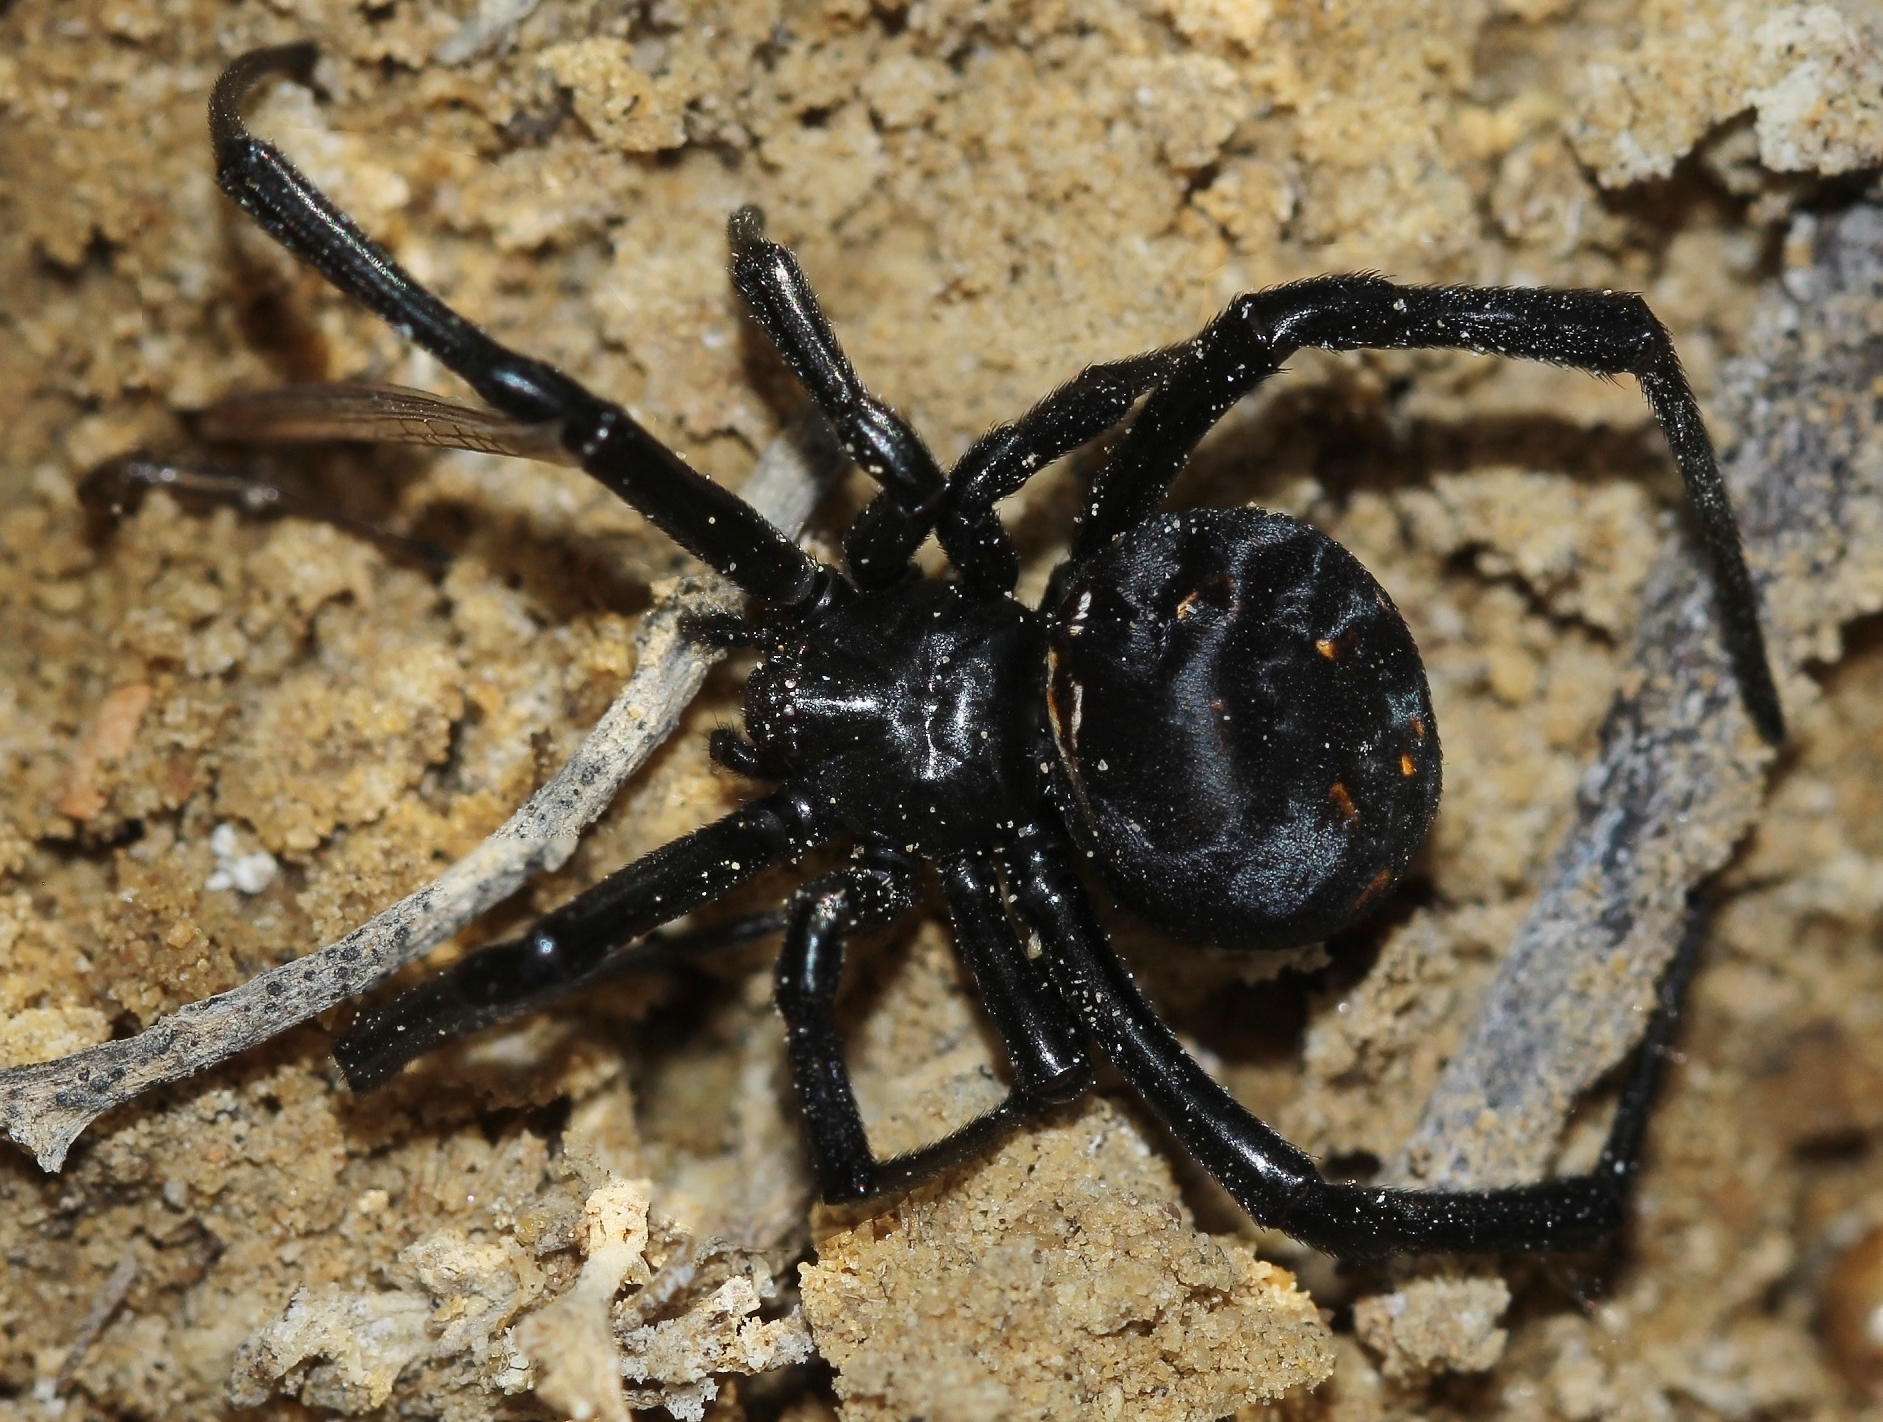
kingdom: Animalia
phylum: Arthropoda
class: Arachnida
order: Araneae
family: Theridiidae
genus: Latrodectus
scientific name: Latrodectus tredecimguttatus
